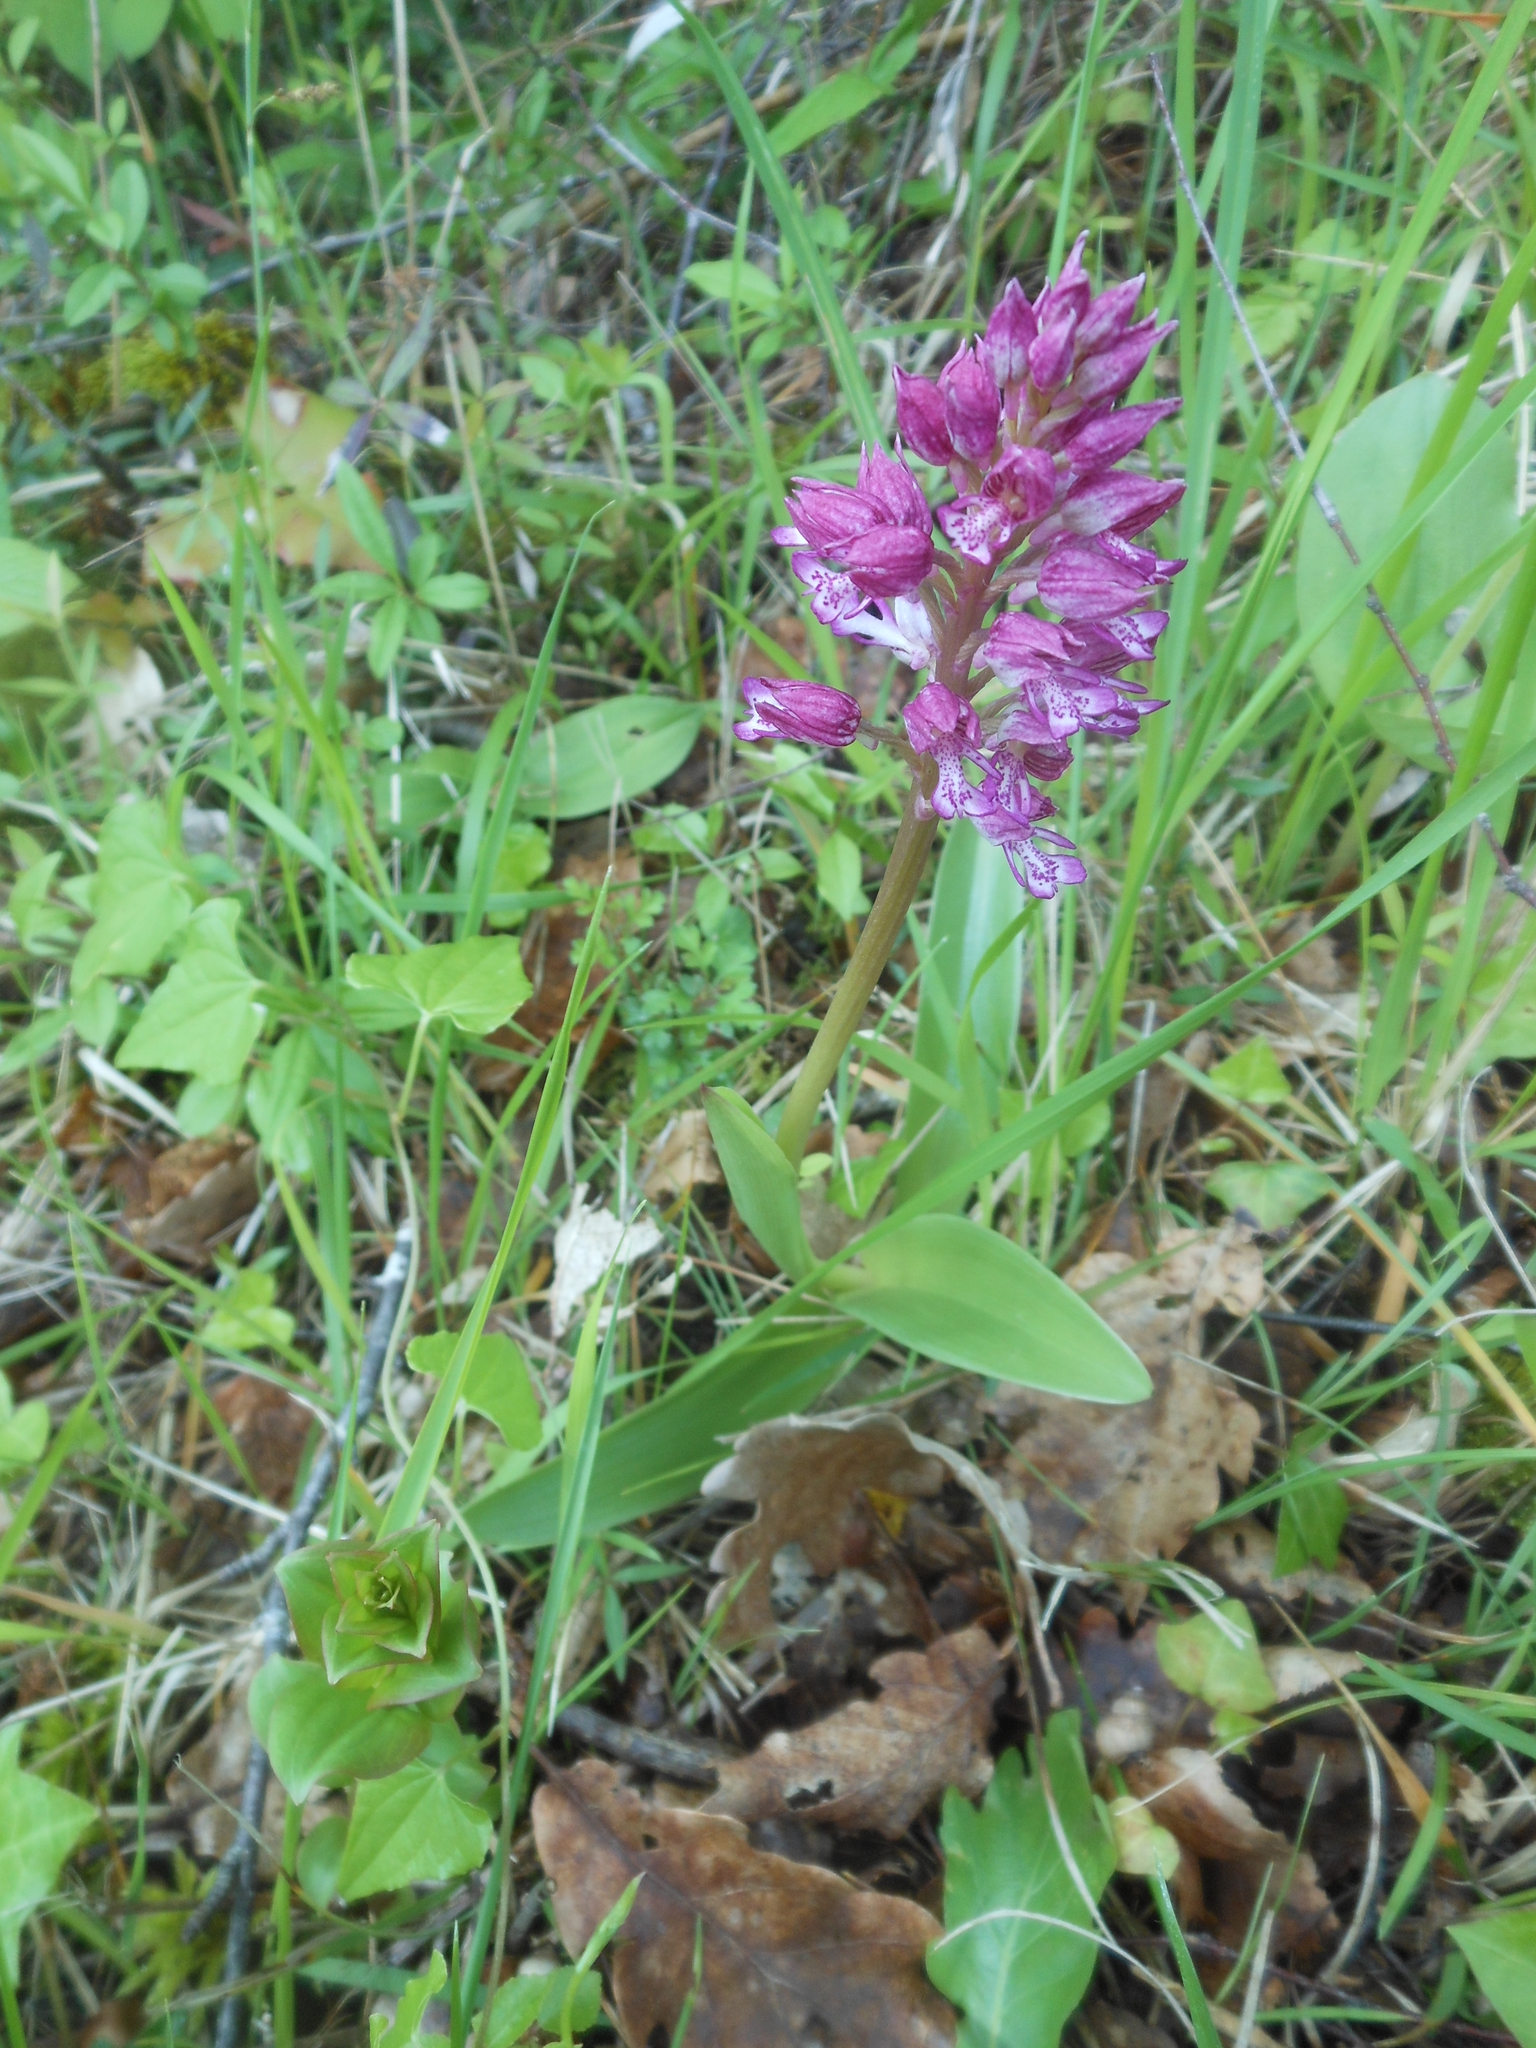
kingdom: Plantae
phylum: Tracheophyta
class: Liliopsida
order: Asparagales
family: Orchidaceae
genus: Orchis
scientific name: Orchis hybrida
